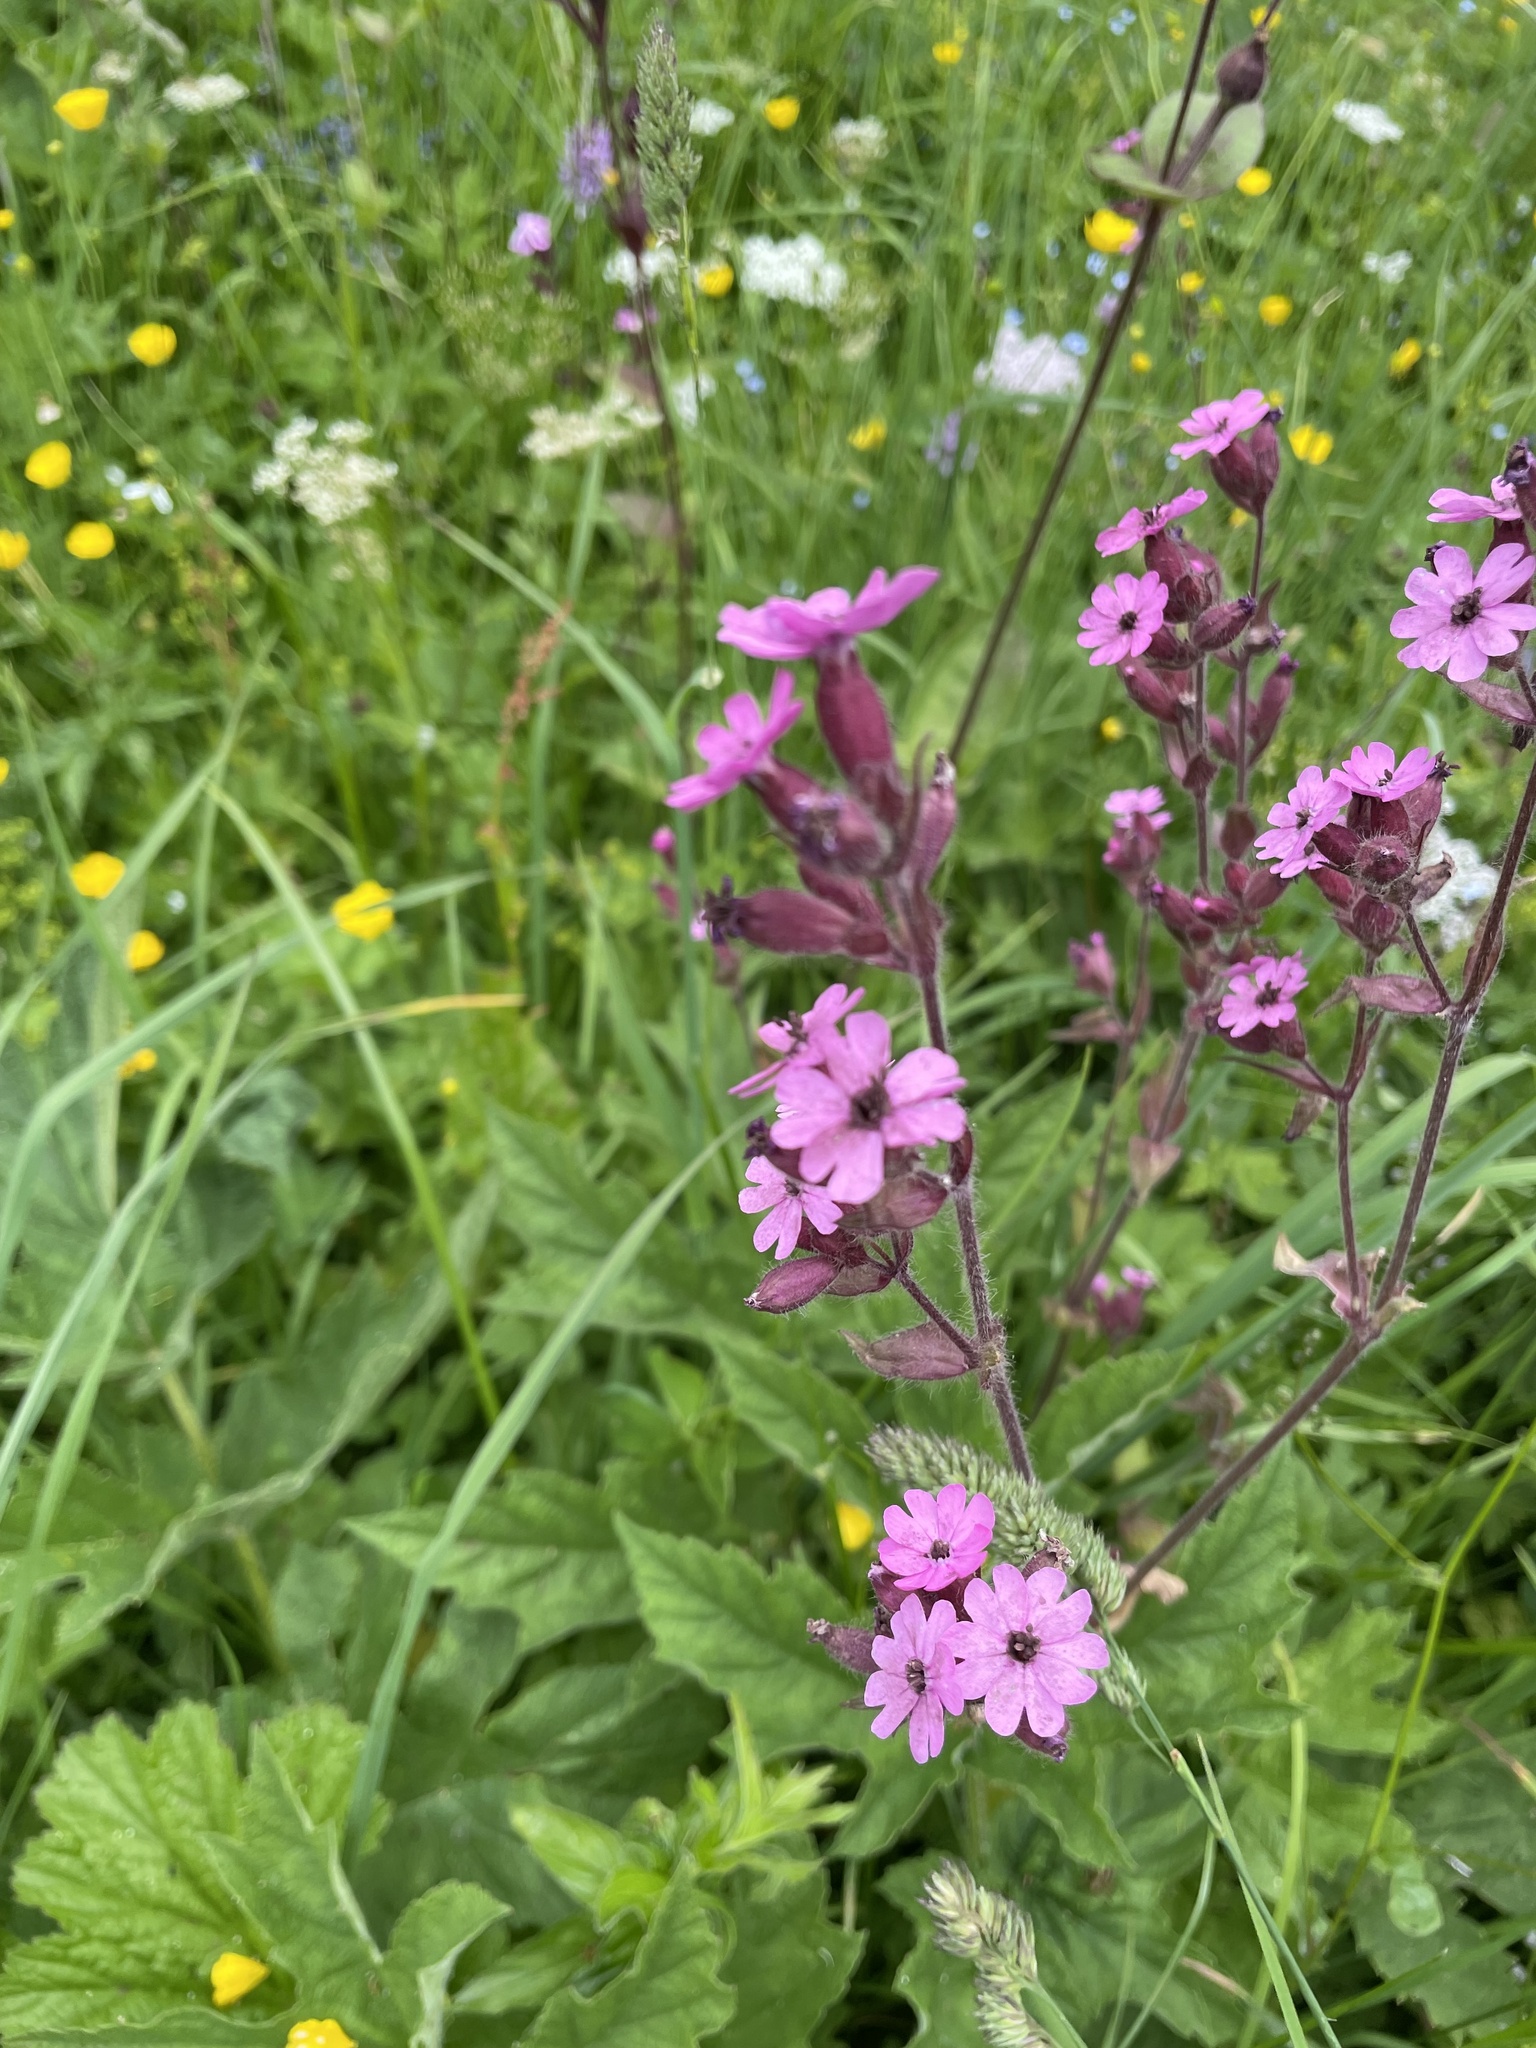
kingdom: Plantae
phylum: Tracheophyta
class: Magnoliopsida
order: Caryophyllales
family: Caryophyllaceae
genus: Silene
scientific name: Silene dioica
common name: Red campion
